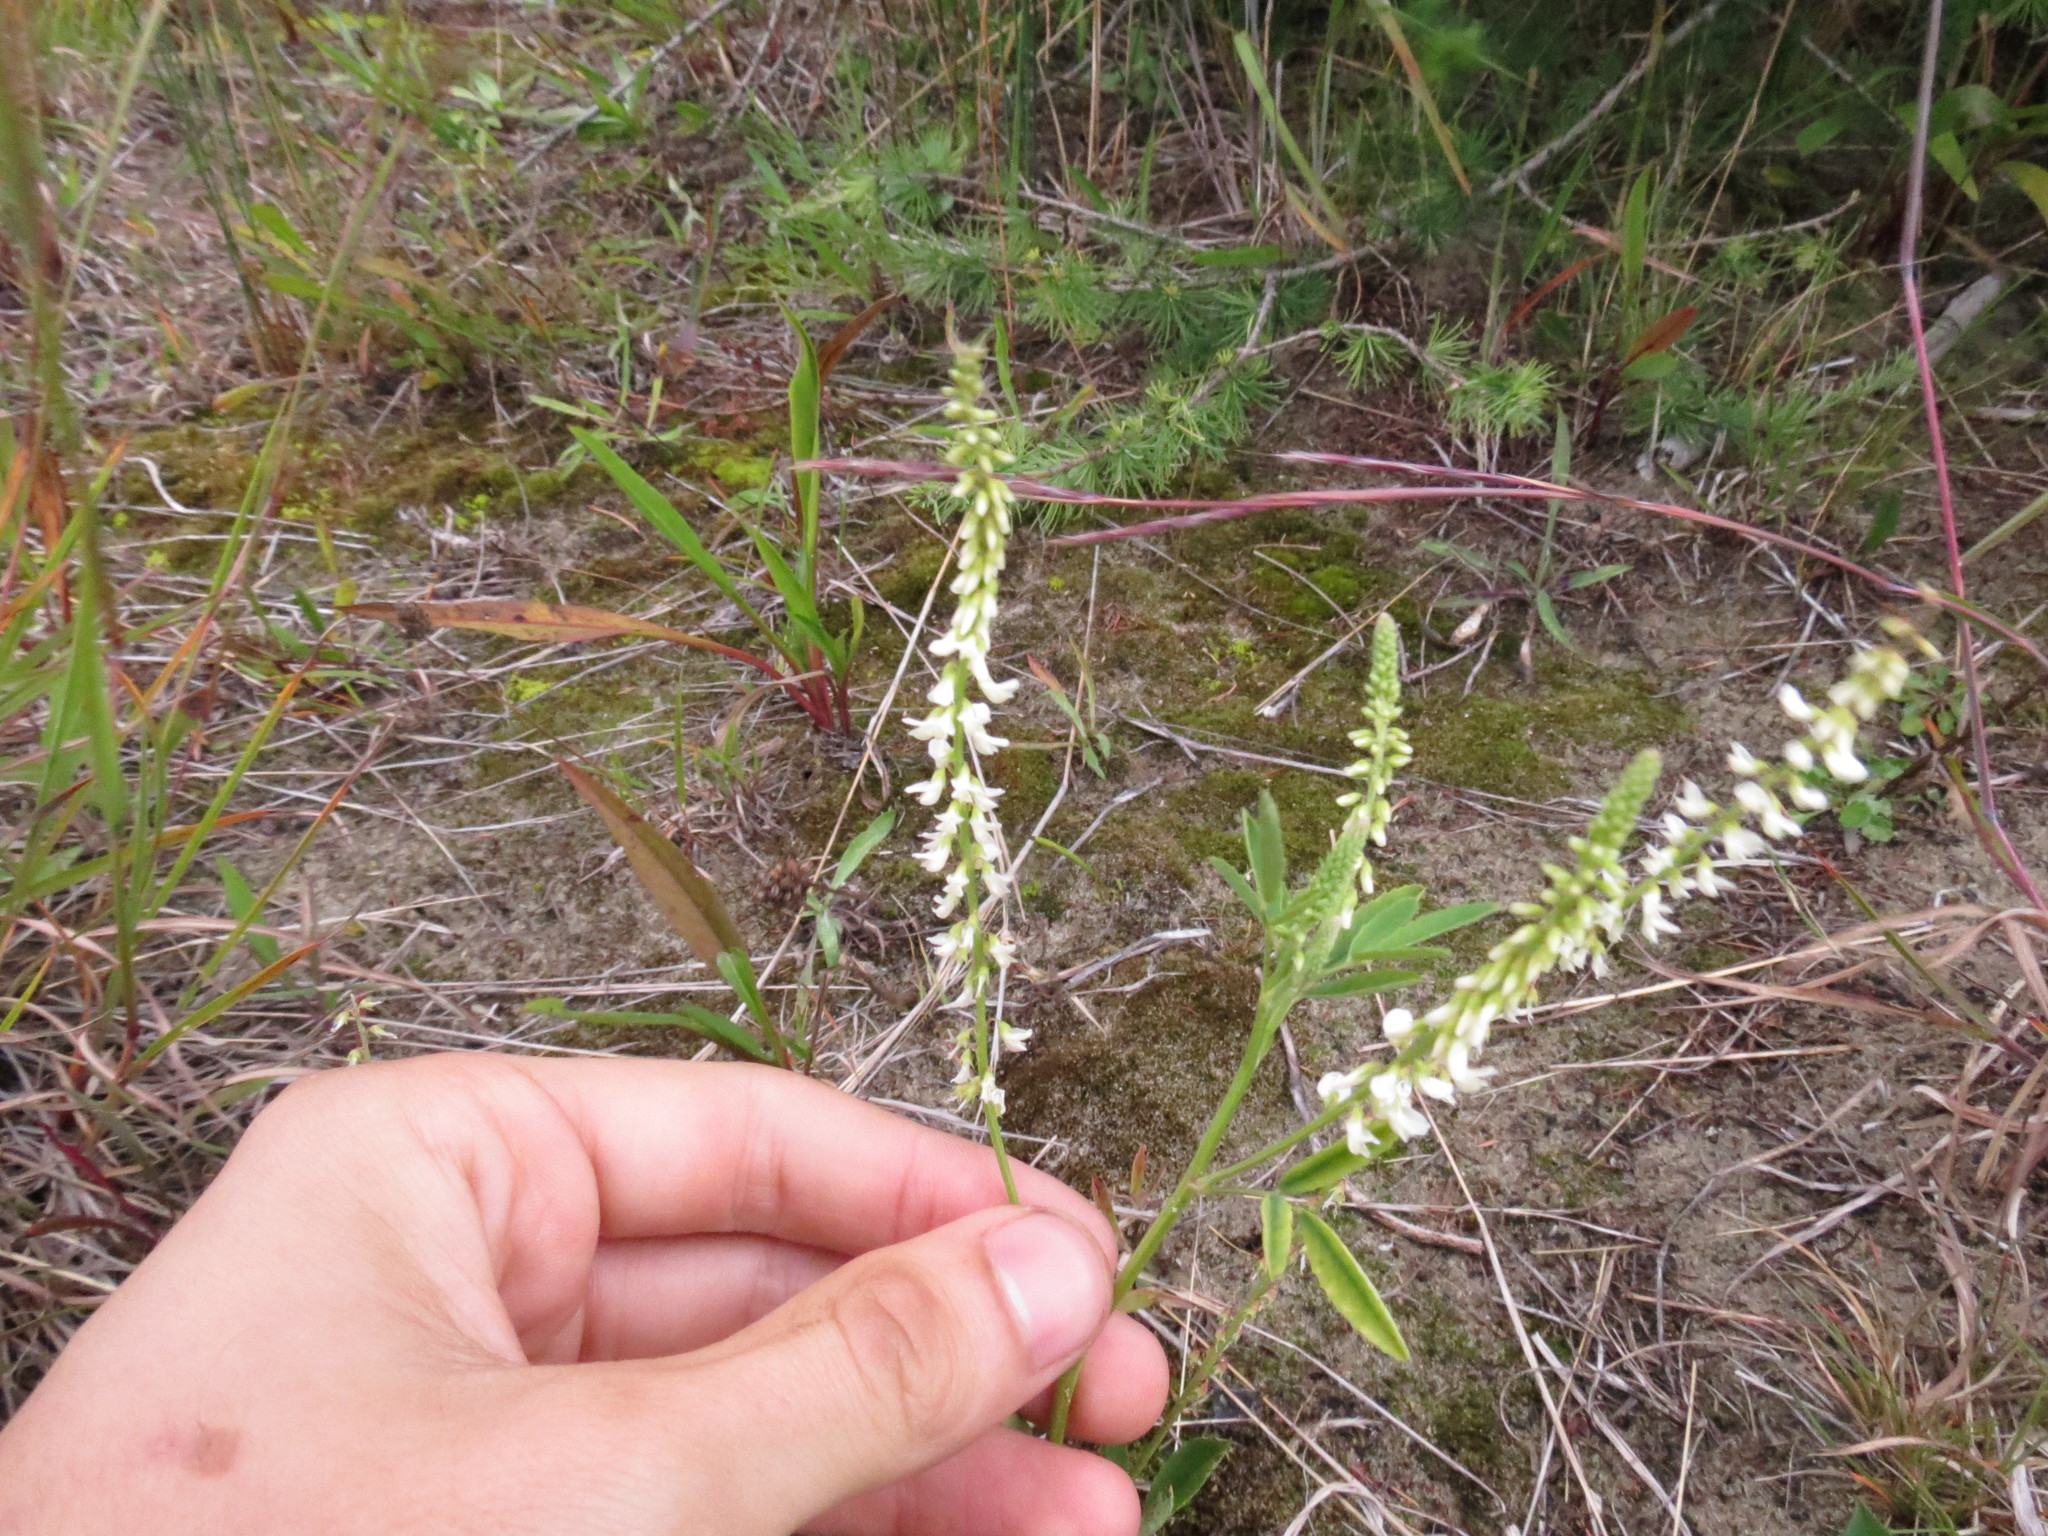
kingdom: Plantae
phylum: Tracheophyta
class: Magnoliopsida
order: Fabales
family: Fabaceae
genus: Melilotus
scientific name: Melilotus albus
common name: White melilot
